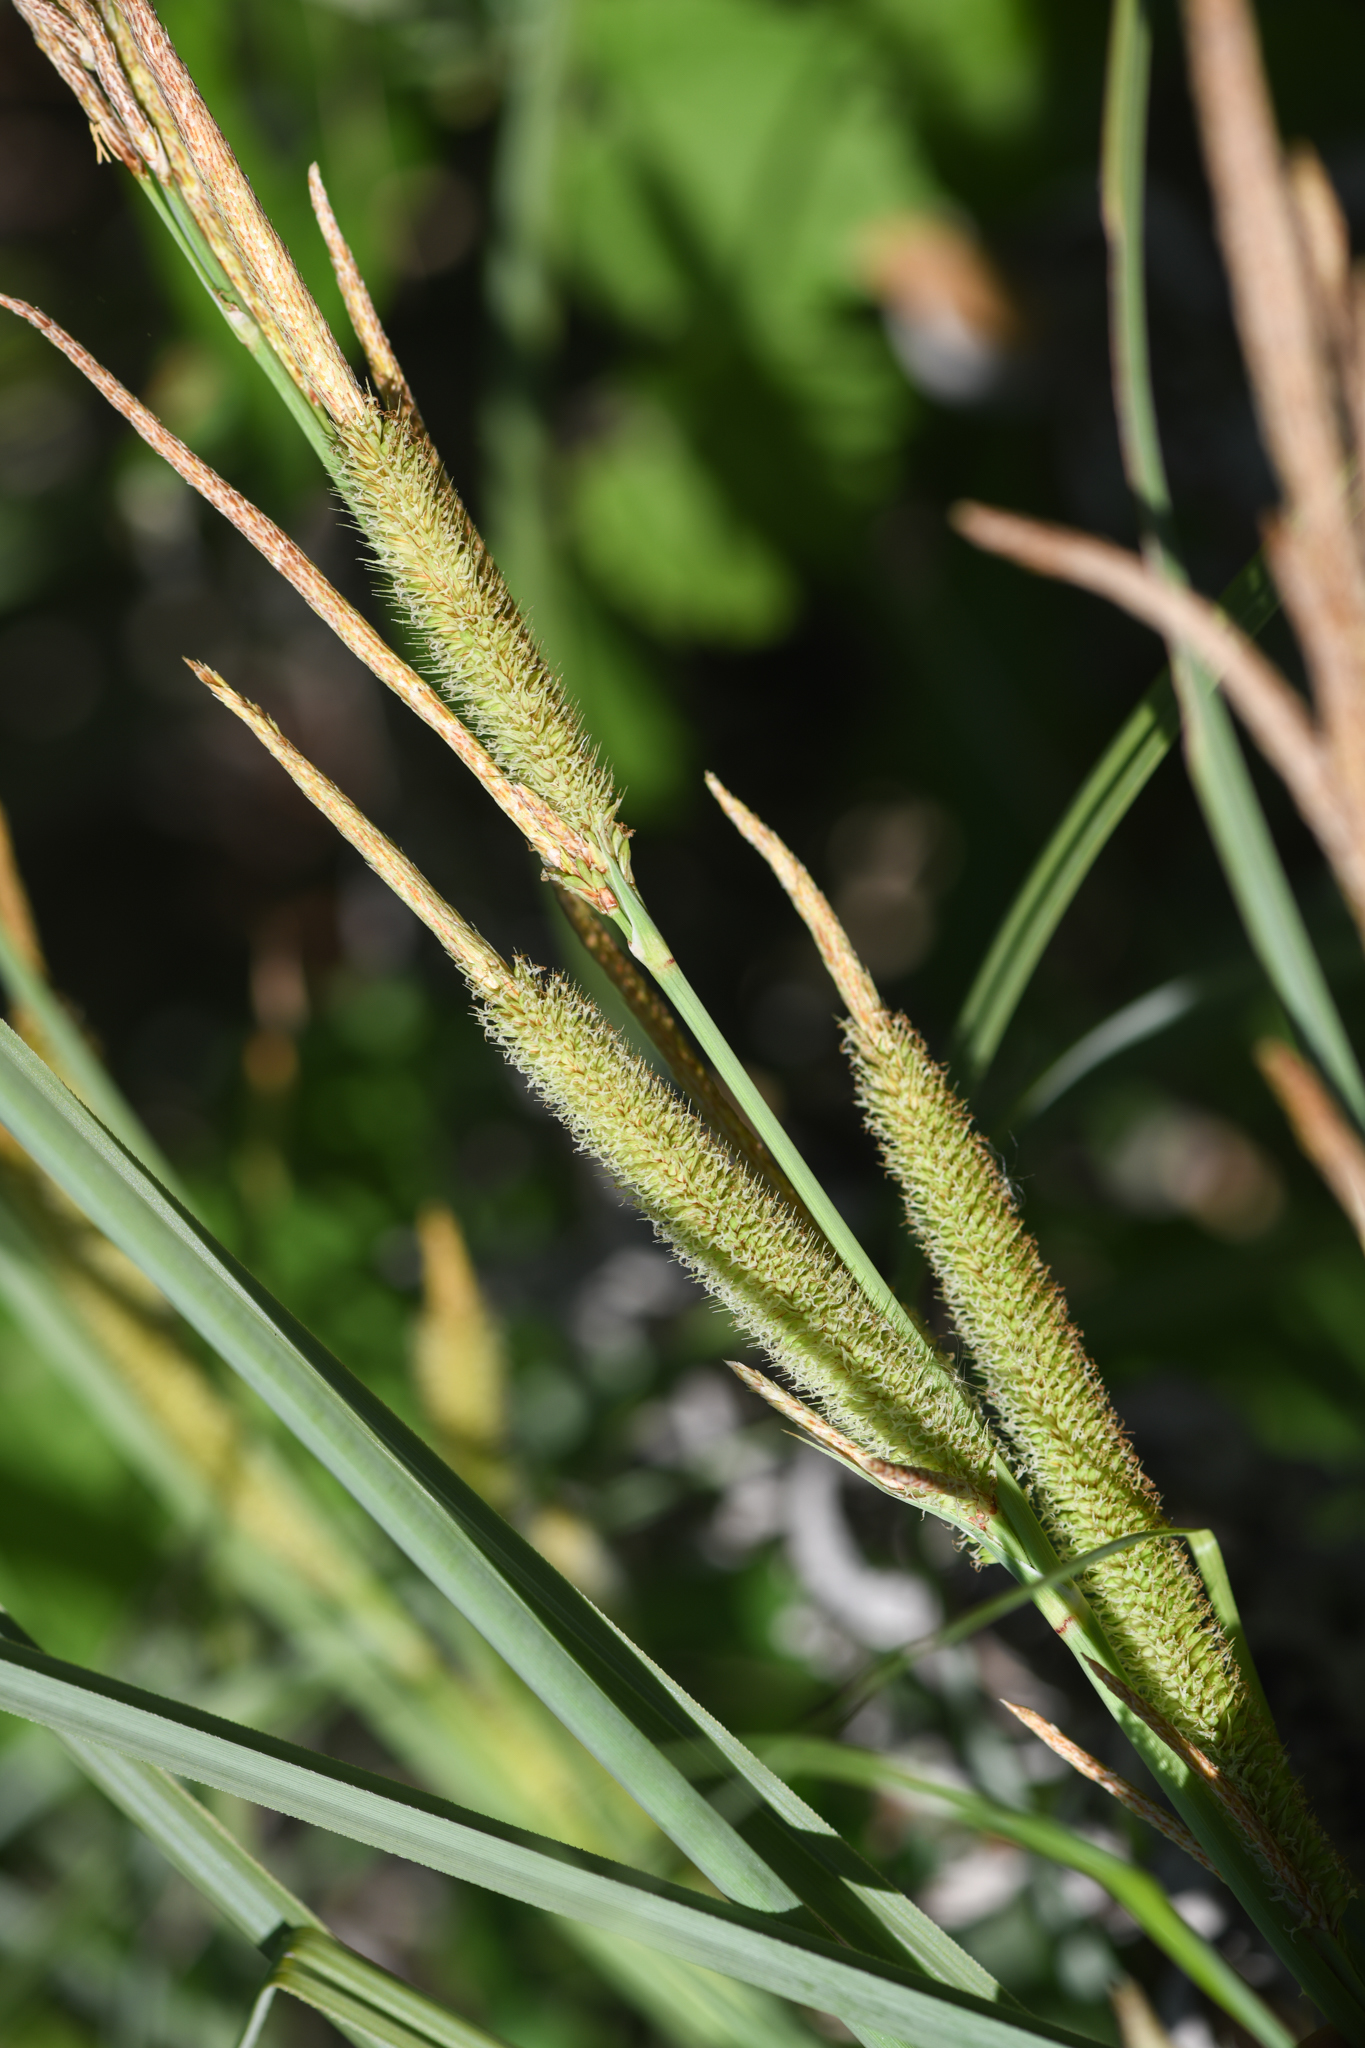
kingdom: Plantae
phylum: Tracheophyta
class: Liliopsida
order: Poales
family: Cyperaceae
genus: Carex
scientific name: Carex spissa
